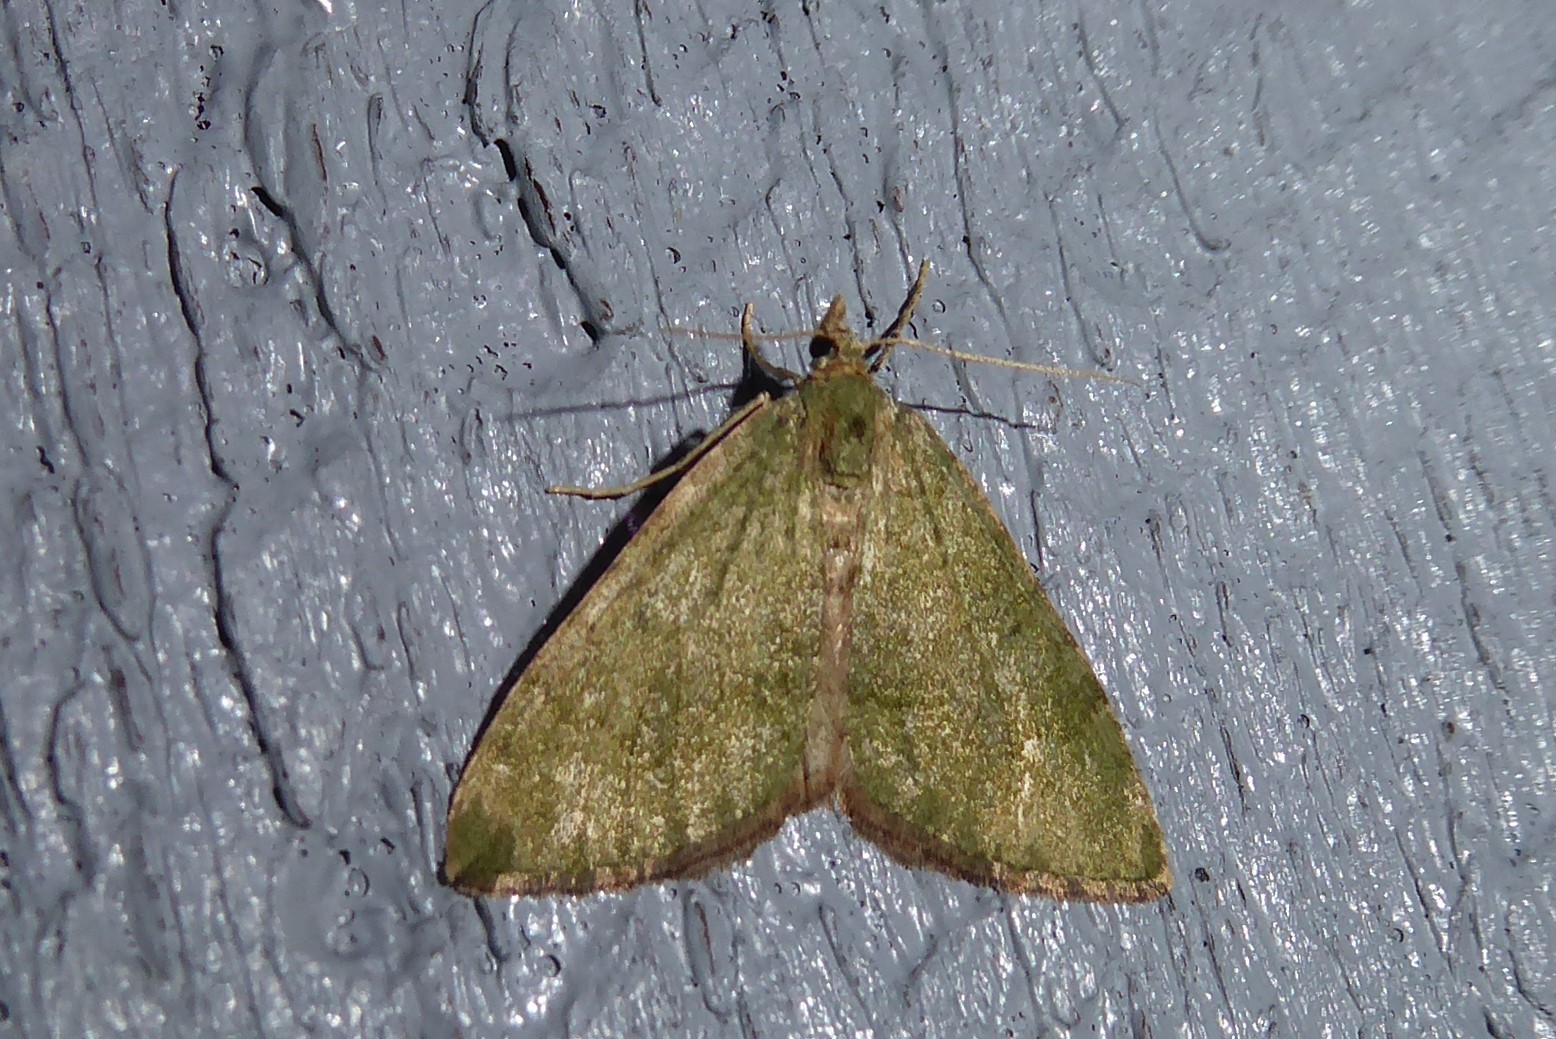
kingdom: Animalia
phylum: Arthropoda
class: Insecta
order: Lepidoptera
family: Geometridae
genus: Epyaxa
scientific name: Epyaxa rosearia
